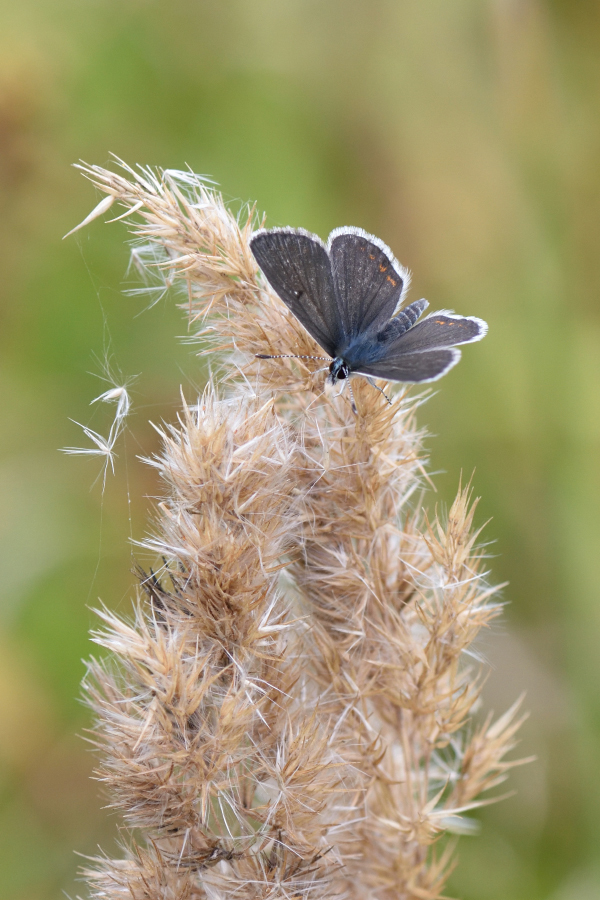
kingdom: Animalia
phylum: Arthropoda
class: Insecta
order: Lepidoptera
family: Lycaenidae
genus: Aricia
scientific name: Aricia artaxerxes
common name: Northern brown argus
